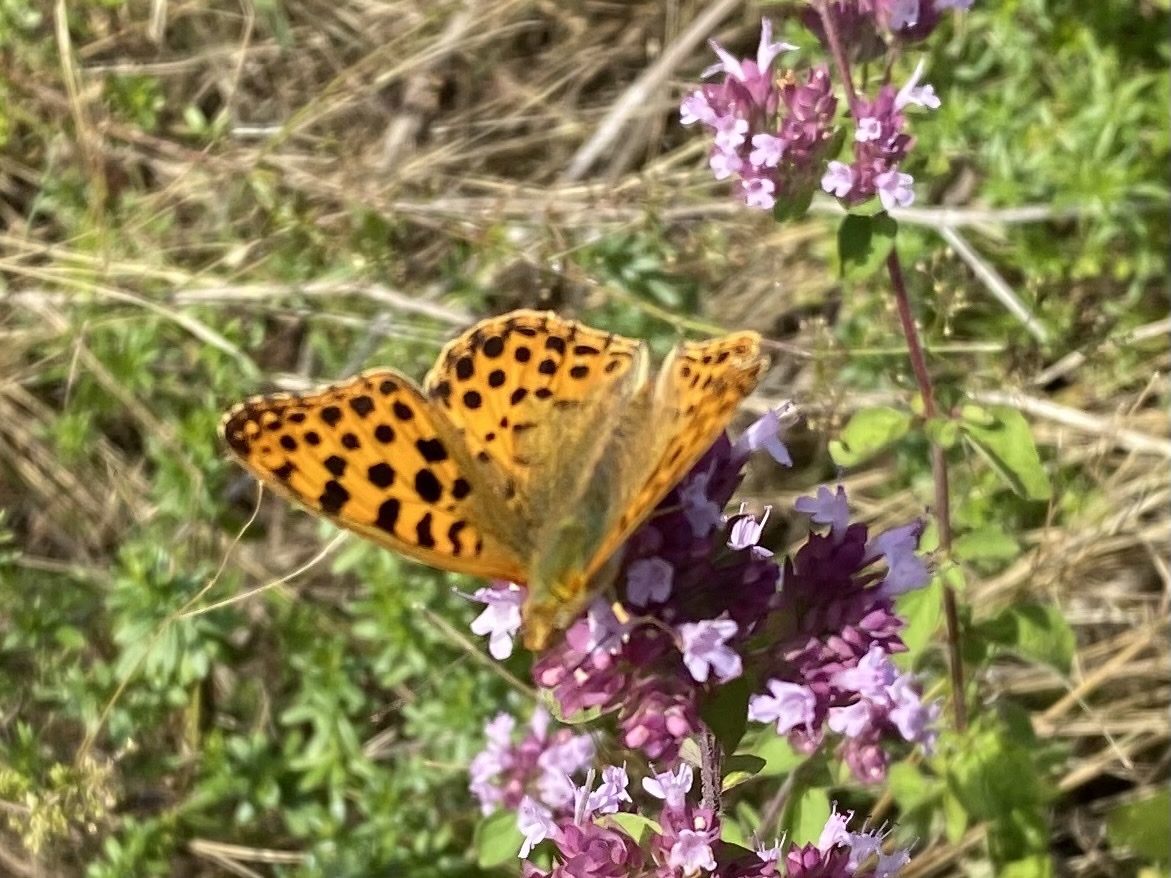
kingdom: Animalia
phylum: Arthropoda
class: Insecta
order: Lepidoptera
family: Nymphalidae
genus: Issoria
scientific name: Issoria lathonia
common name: Queen of spain fritillary
